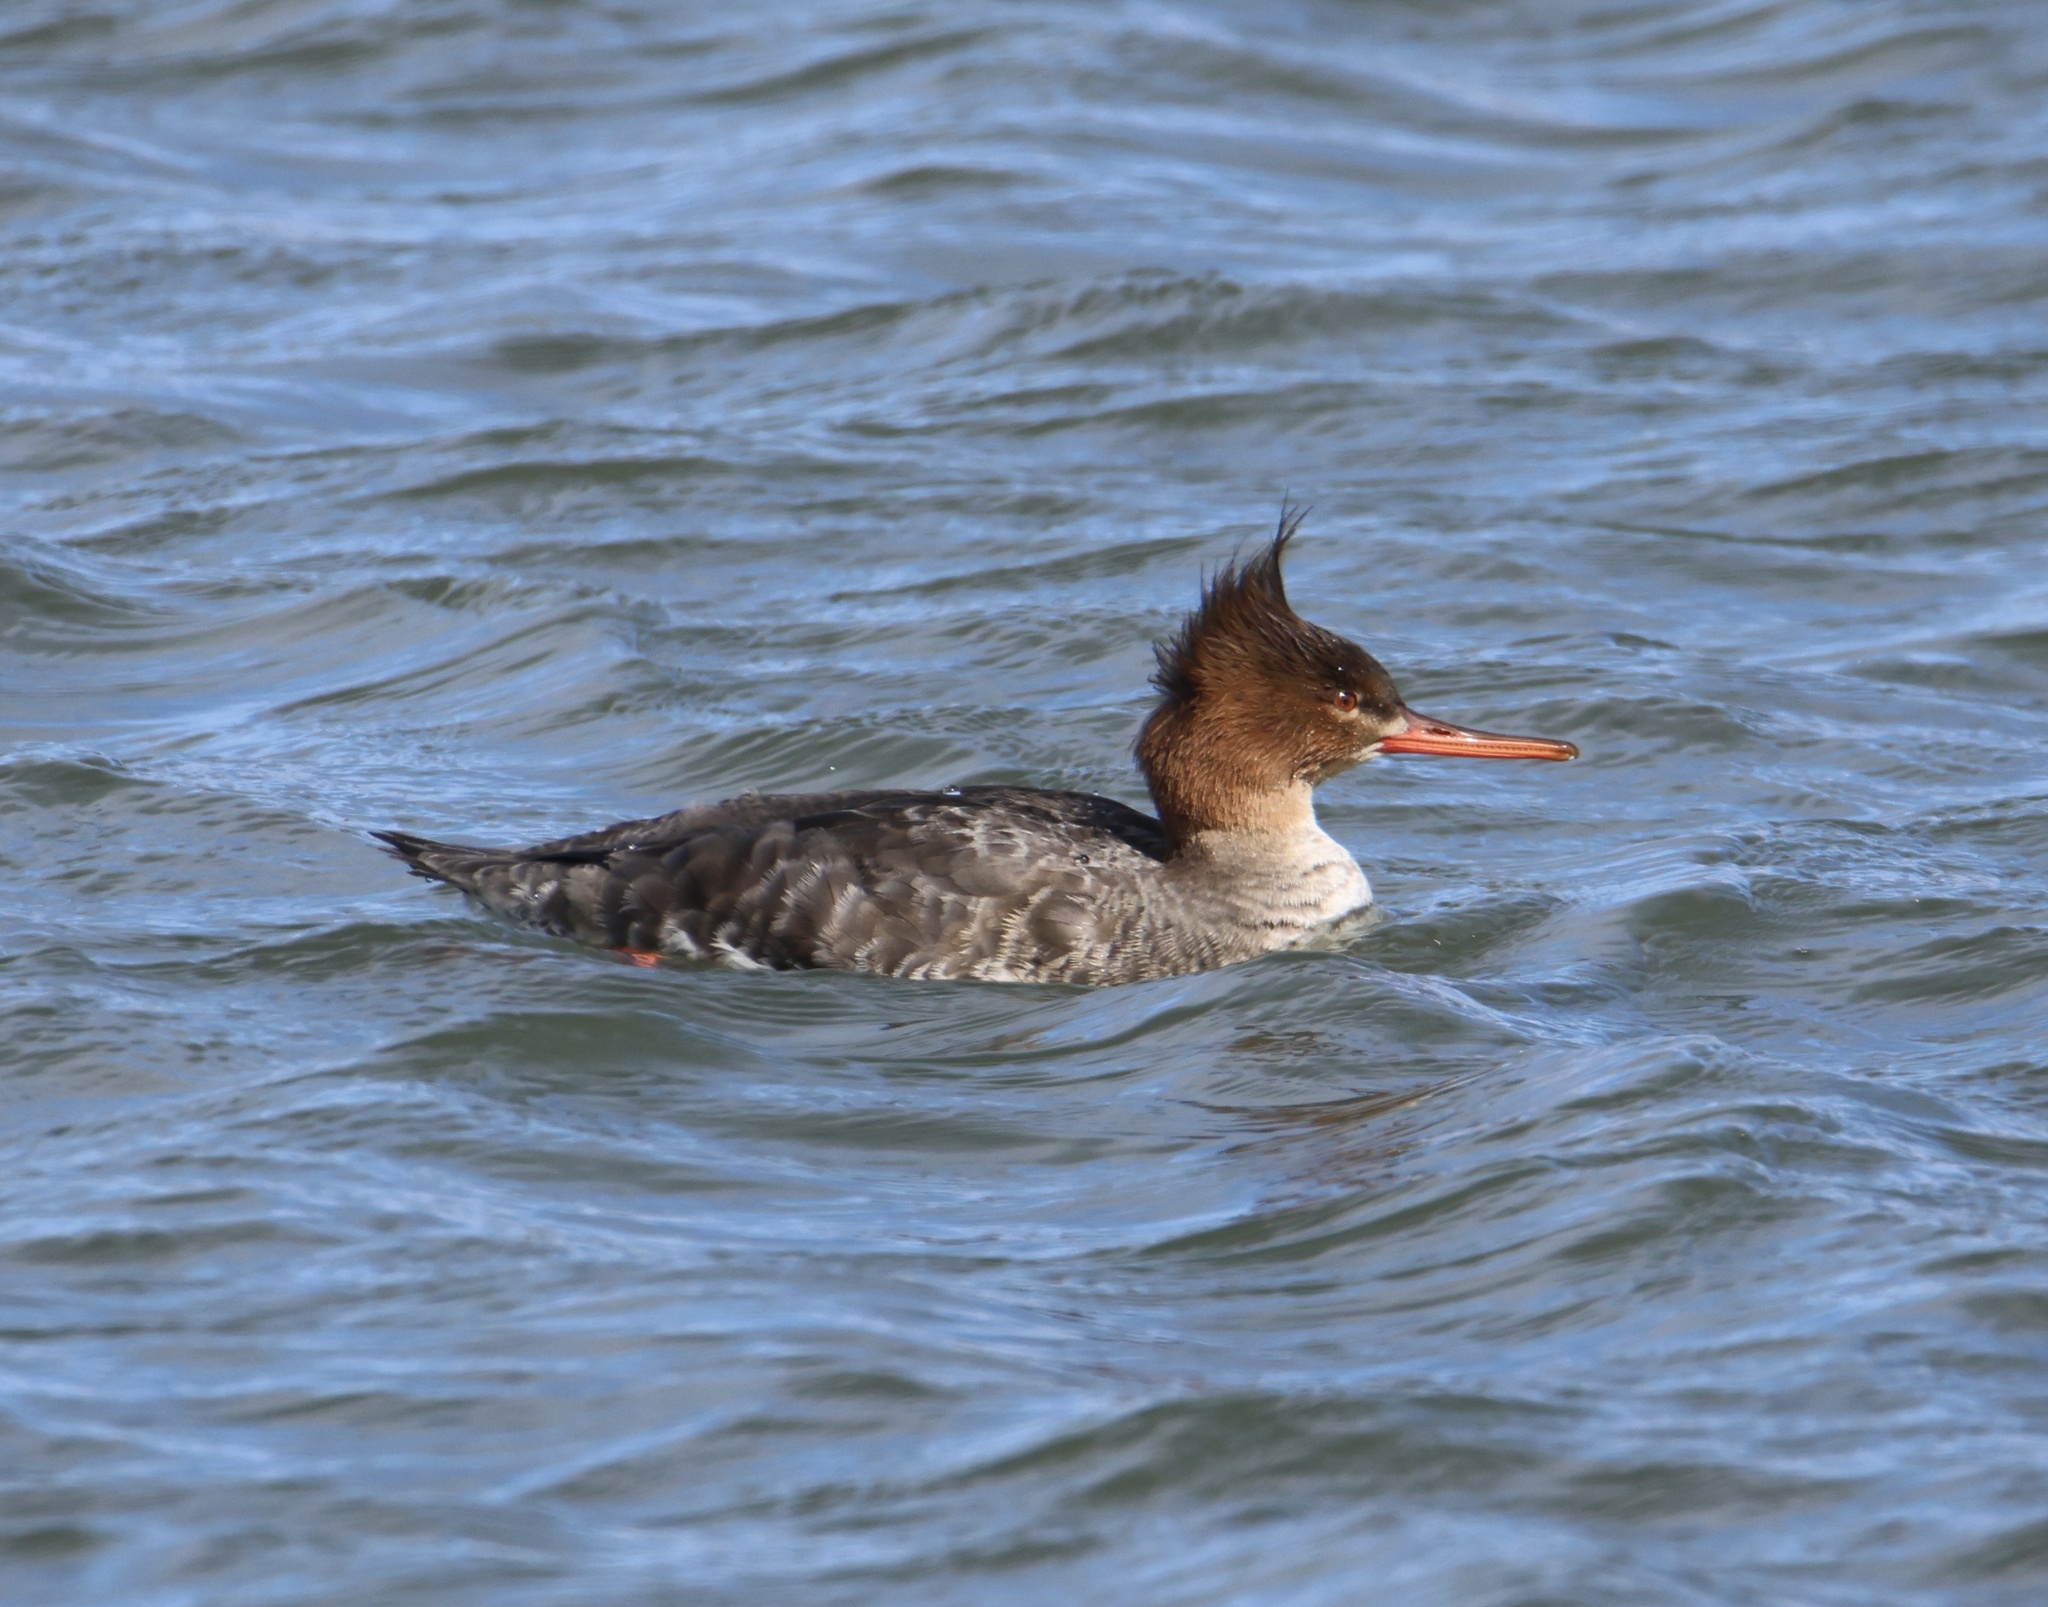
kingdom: Animalia
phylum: Chordata
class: Aves
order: Anseriformes
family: Anatidae
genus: Mergus
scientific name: Mergus serrator
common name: Red-breasted merganser
